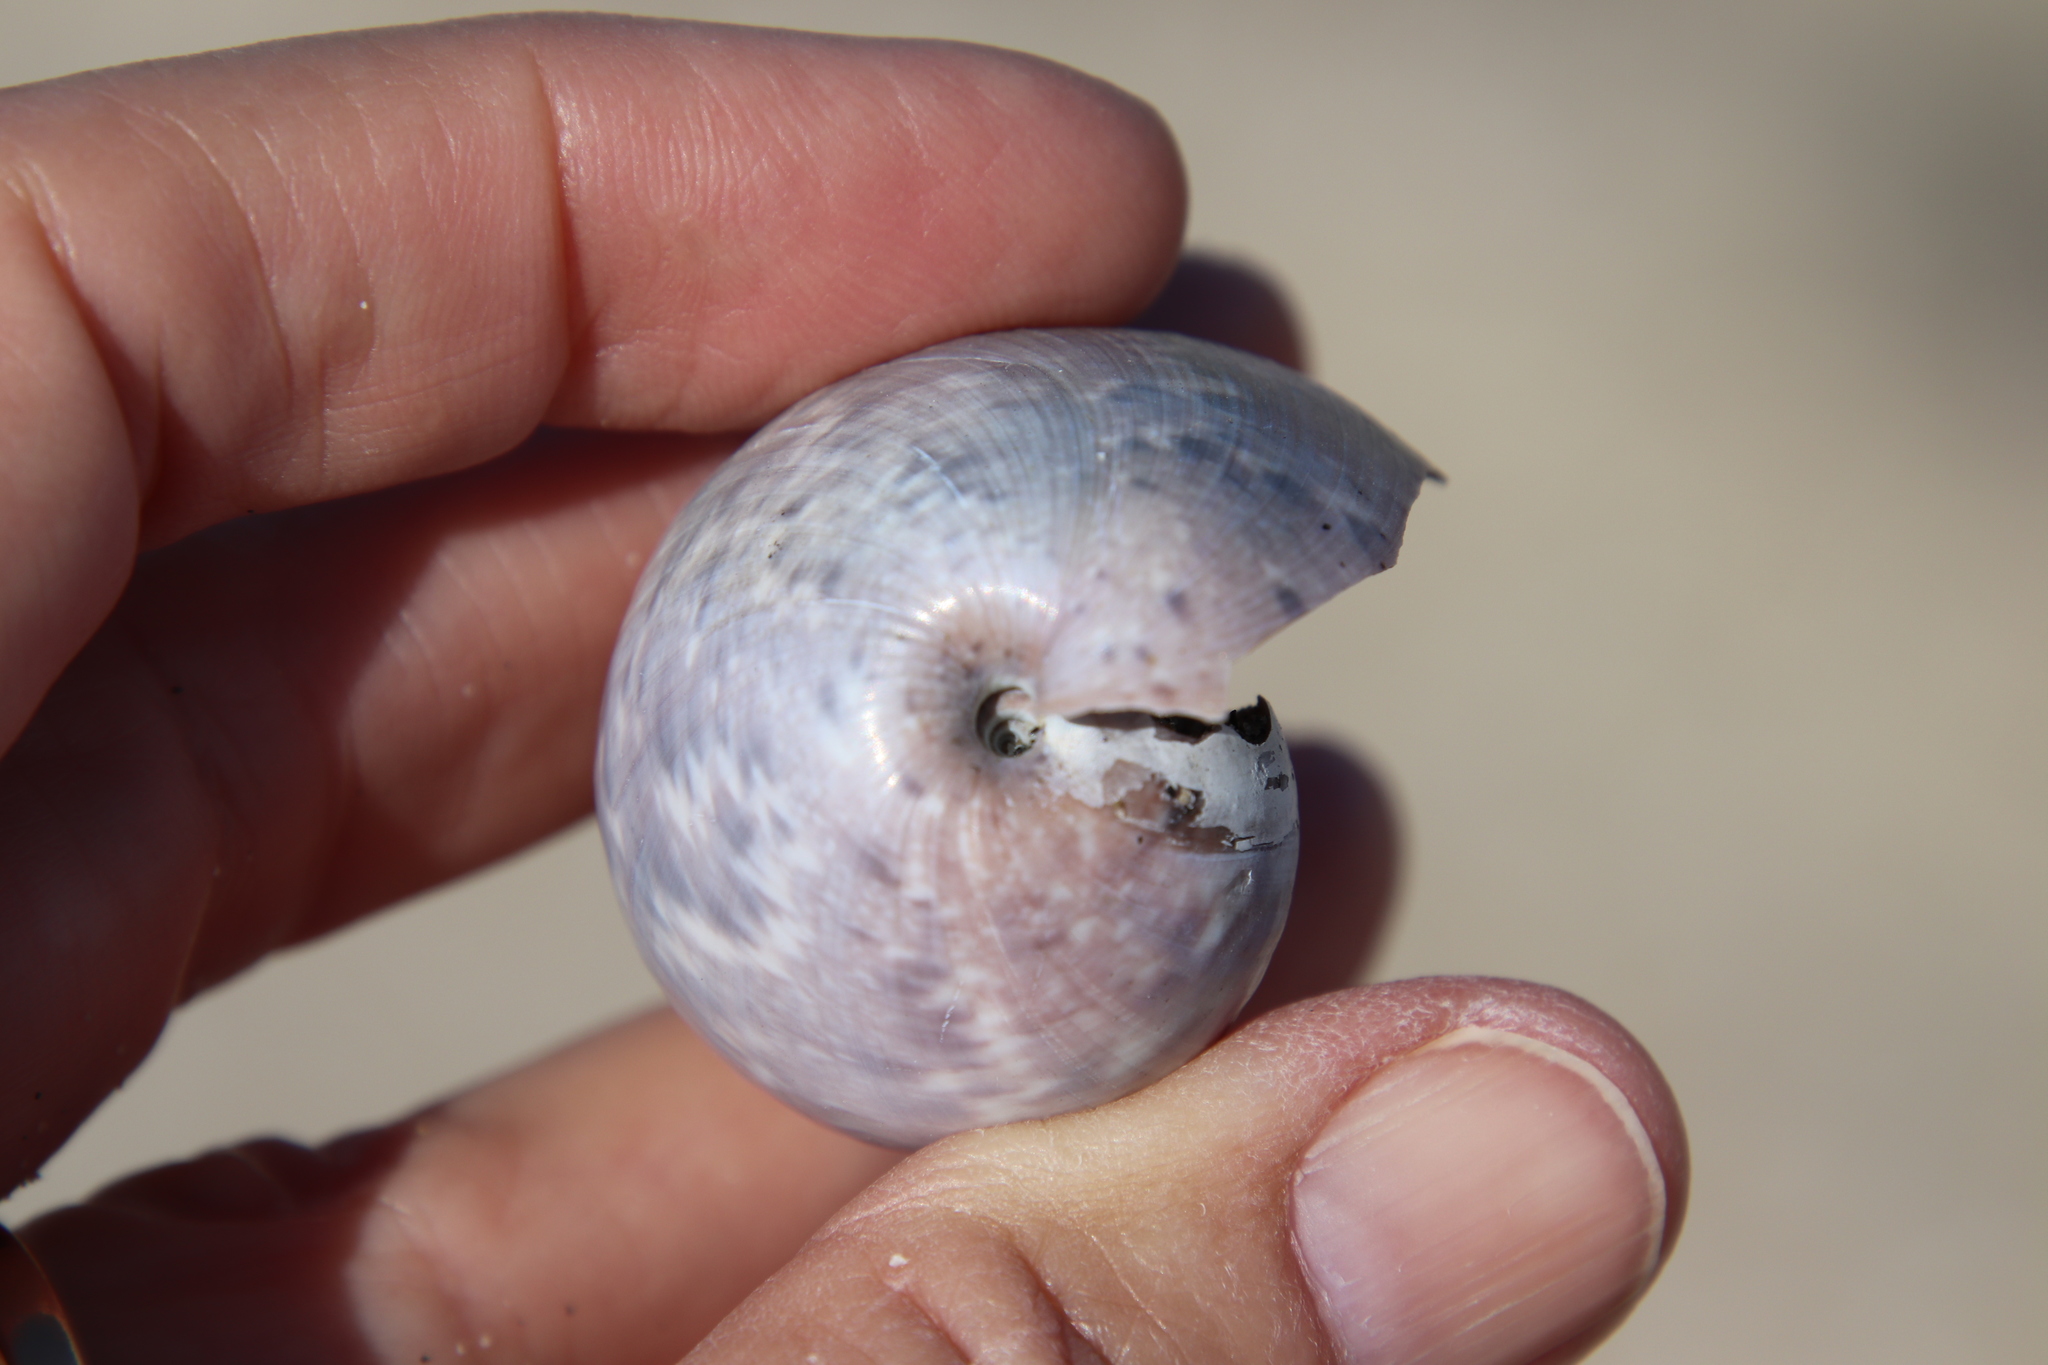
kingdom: Animalia
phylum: Mollusca
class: Gastropoda
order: Cephalaspidea
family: Bullidae
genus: Bulla
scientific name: Bulla gouldiana
